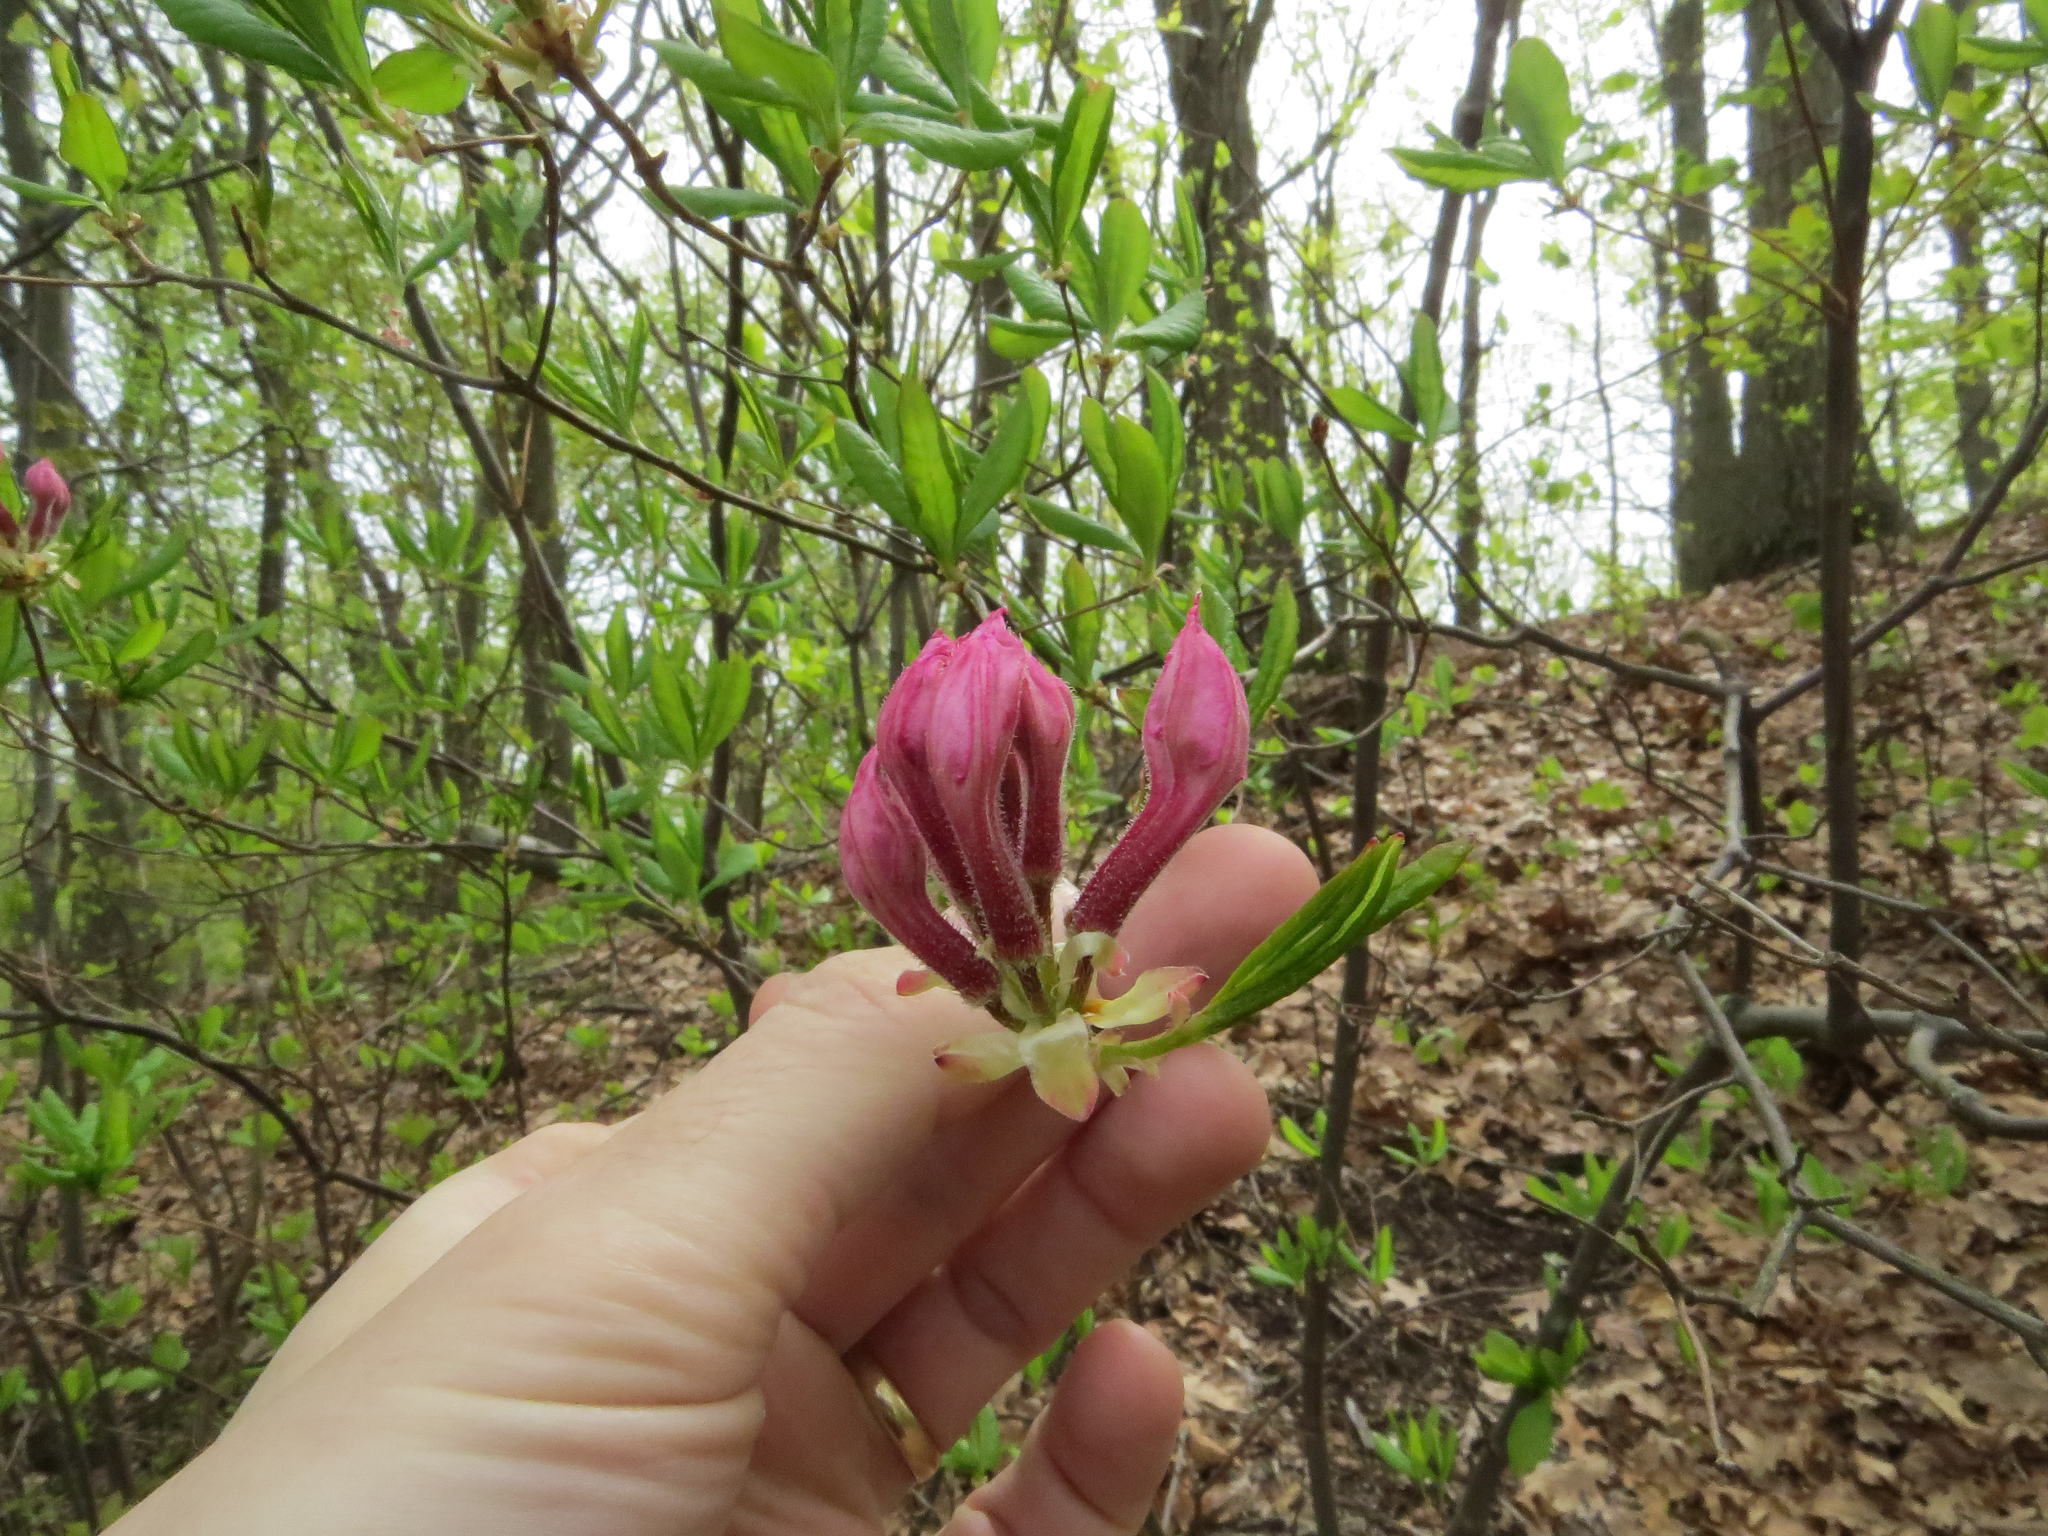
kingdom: Plantae
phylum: Tracheophyta
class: Magnoliopsida
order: Ericales
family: Ericaceae
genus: Rhododendron
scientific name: Rhododendron periclymenoides
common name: Election-pink
